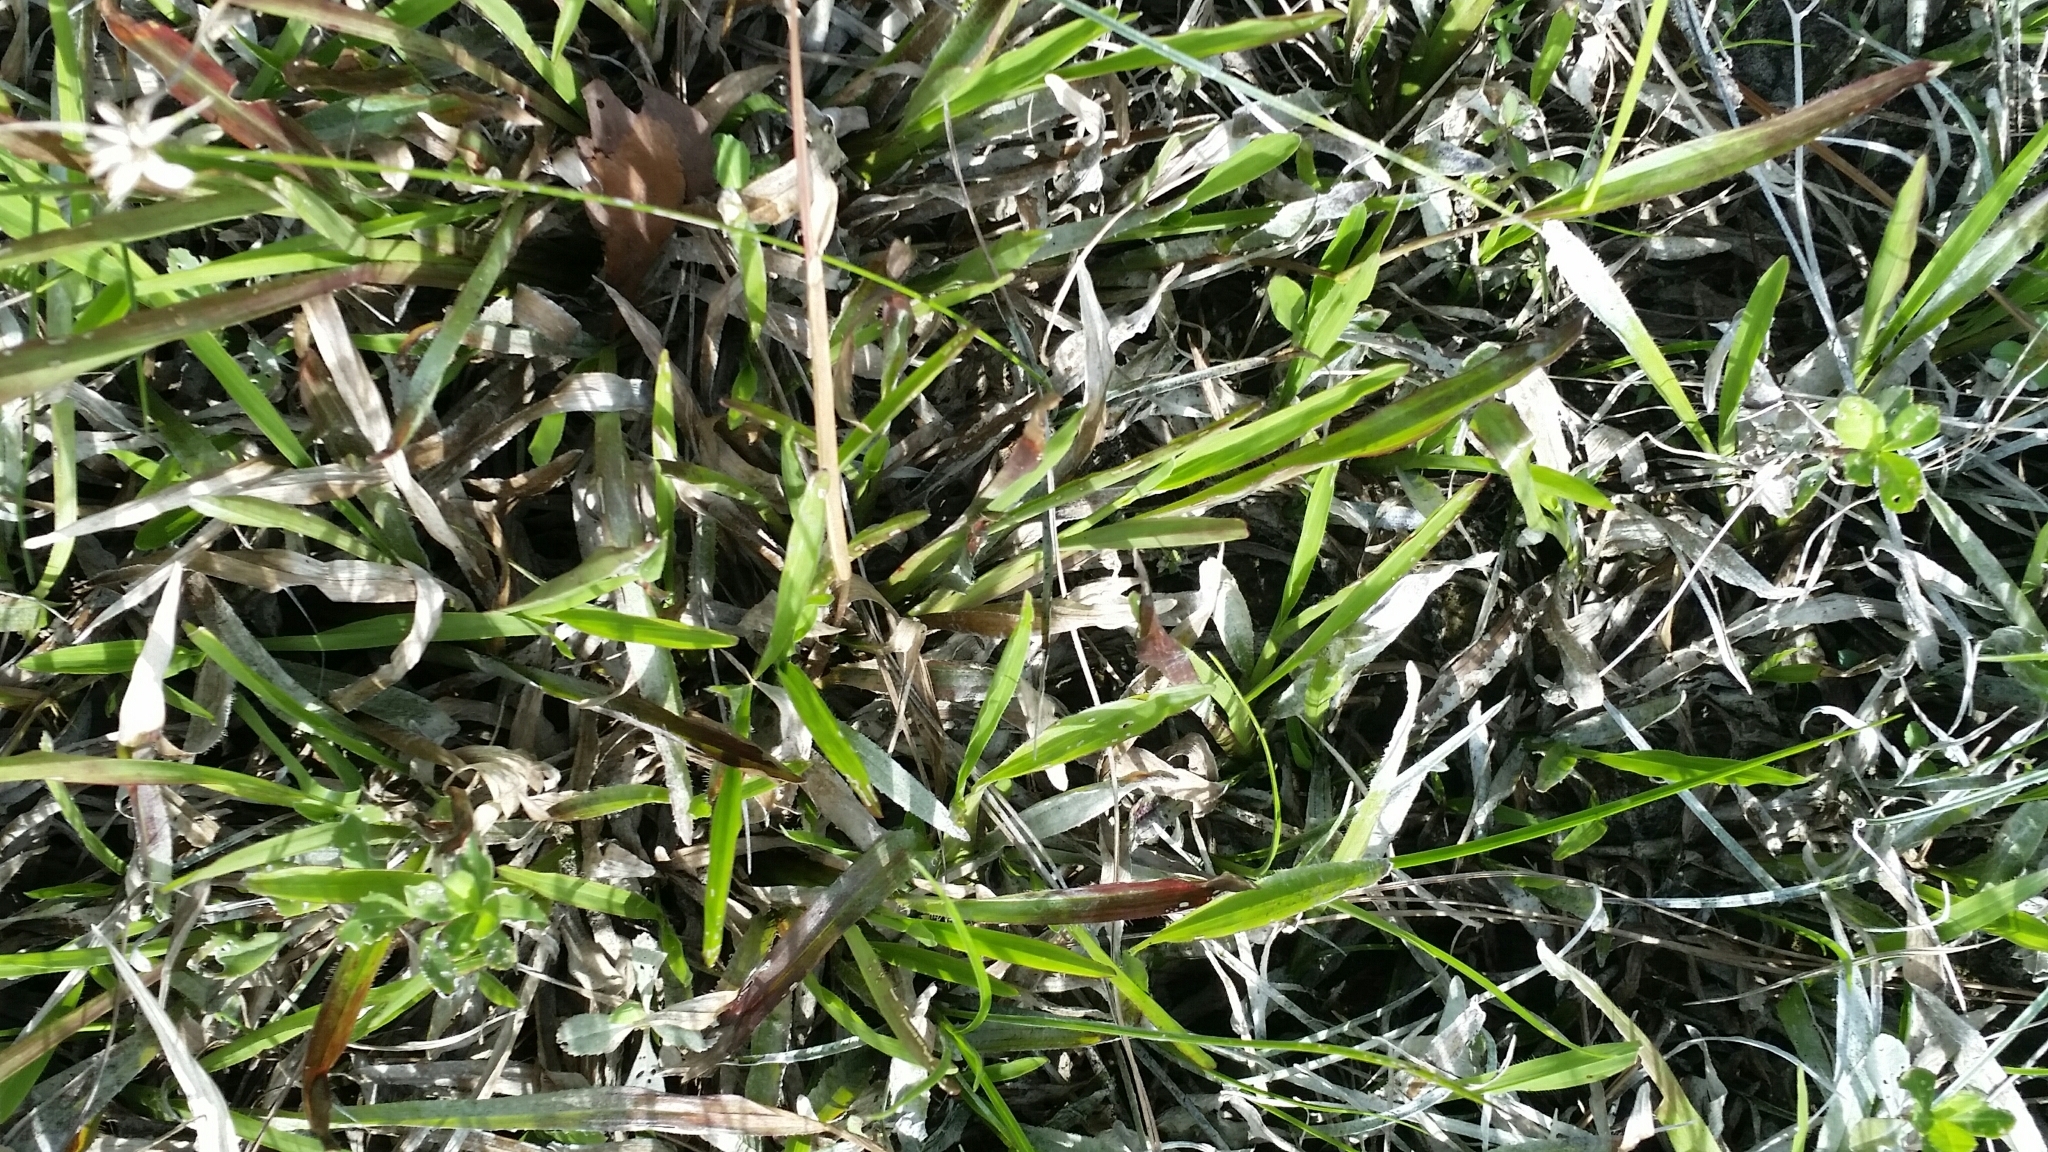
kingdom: Plantae
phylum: Tracheophyta
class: Liliopsida
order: Poales
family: Poaceae
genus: Axonopus
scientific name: Axonopus furcatus
